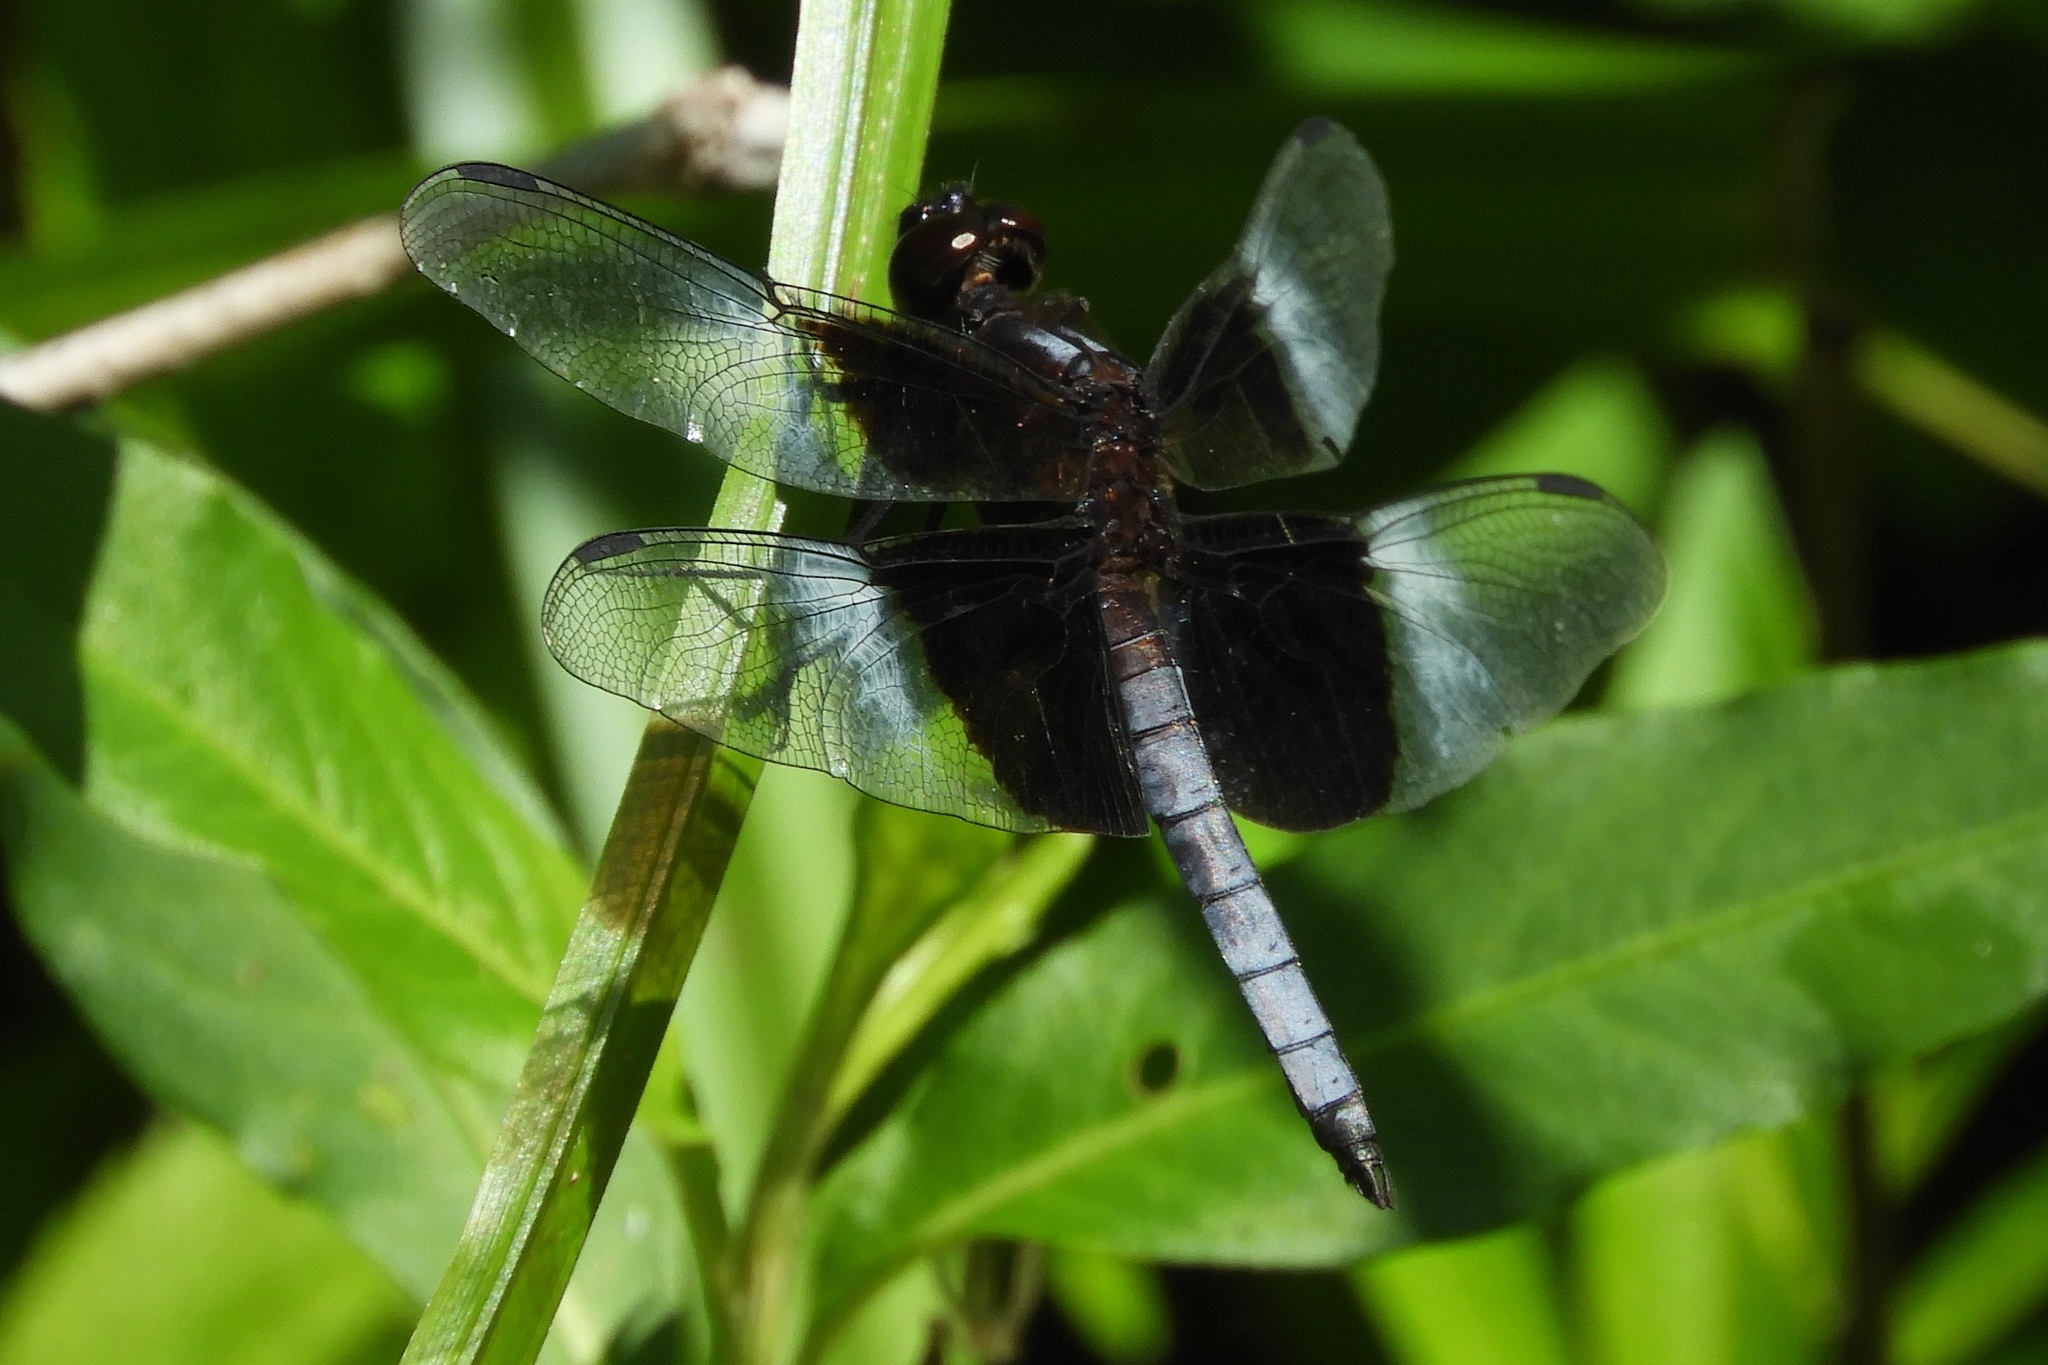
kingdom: Animalia
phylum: Arthropoda
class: Insecta
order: Odonata
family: Libellulidae
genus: Libellula
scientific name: Libellula luctuosa
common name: Widow skimmer
